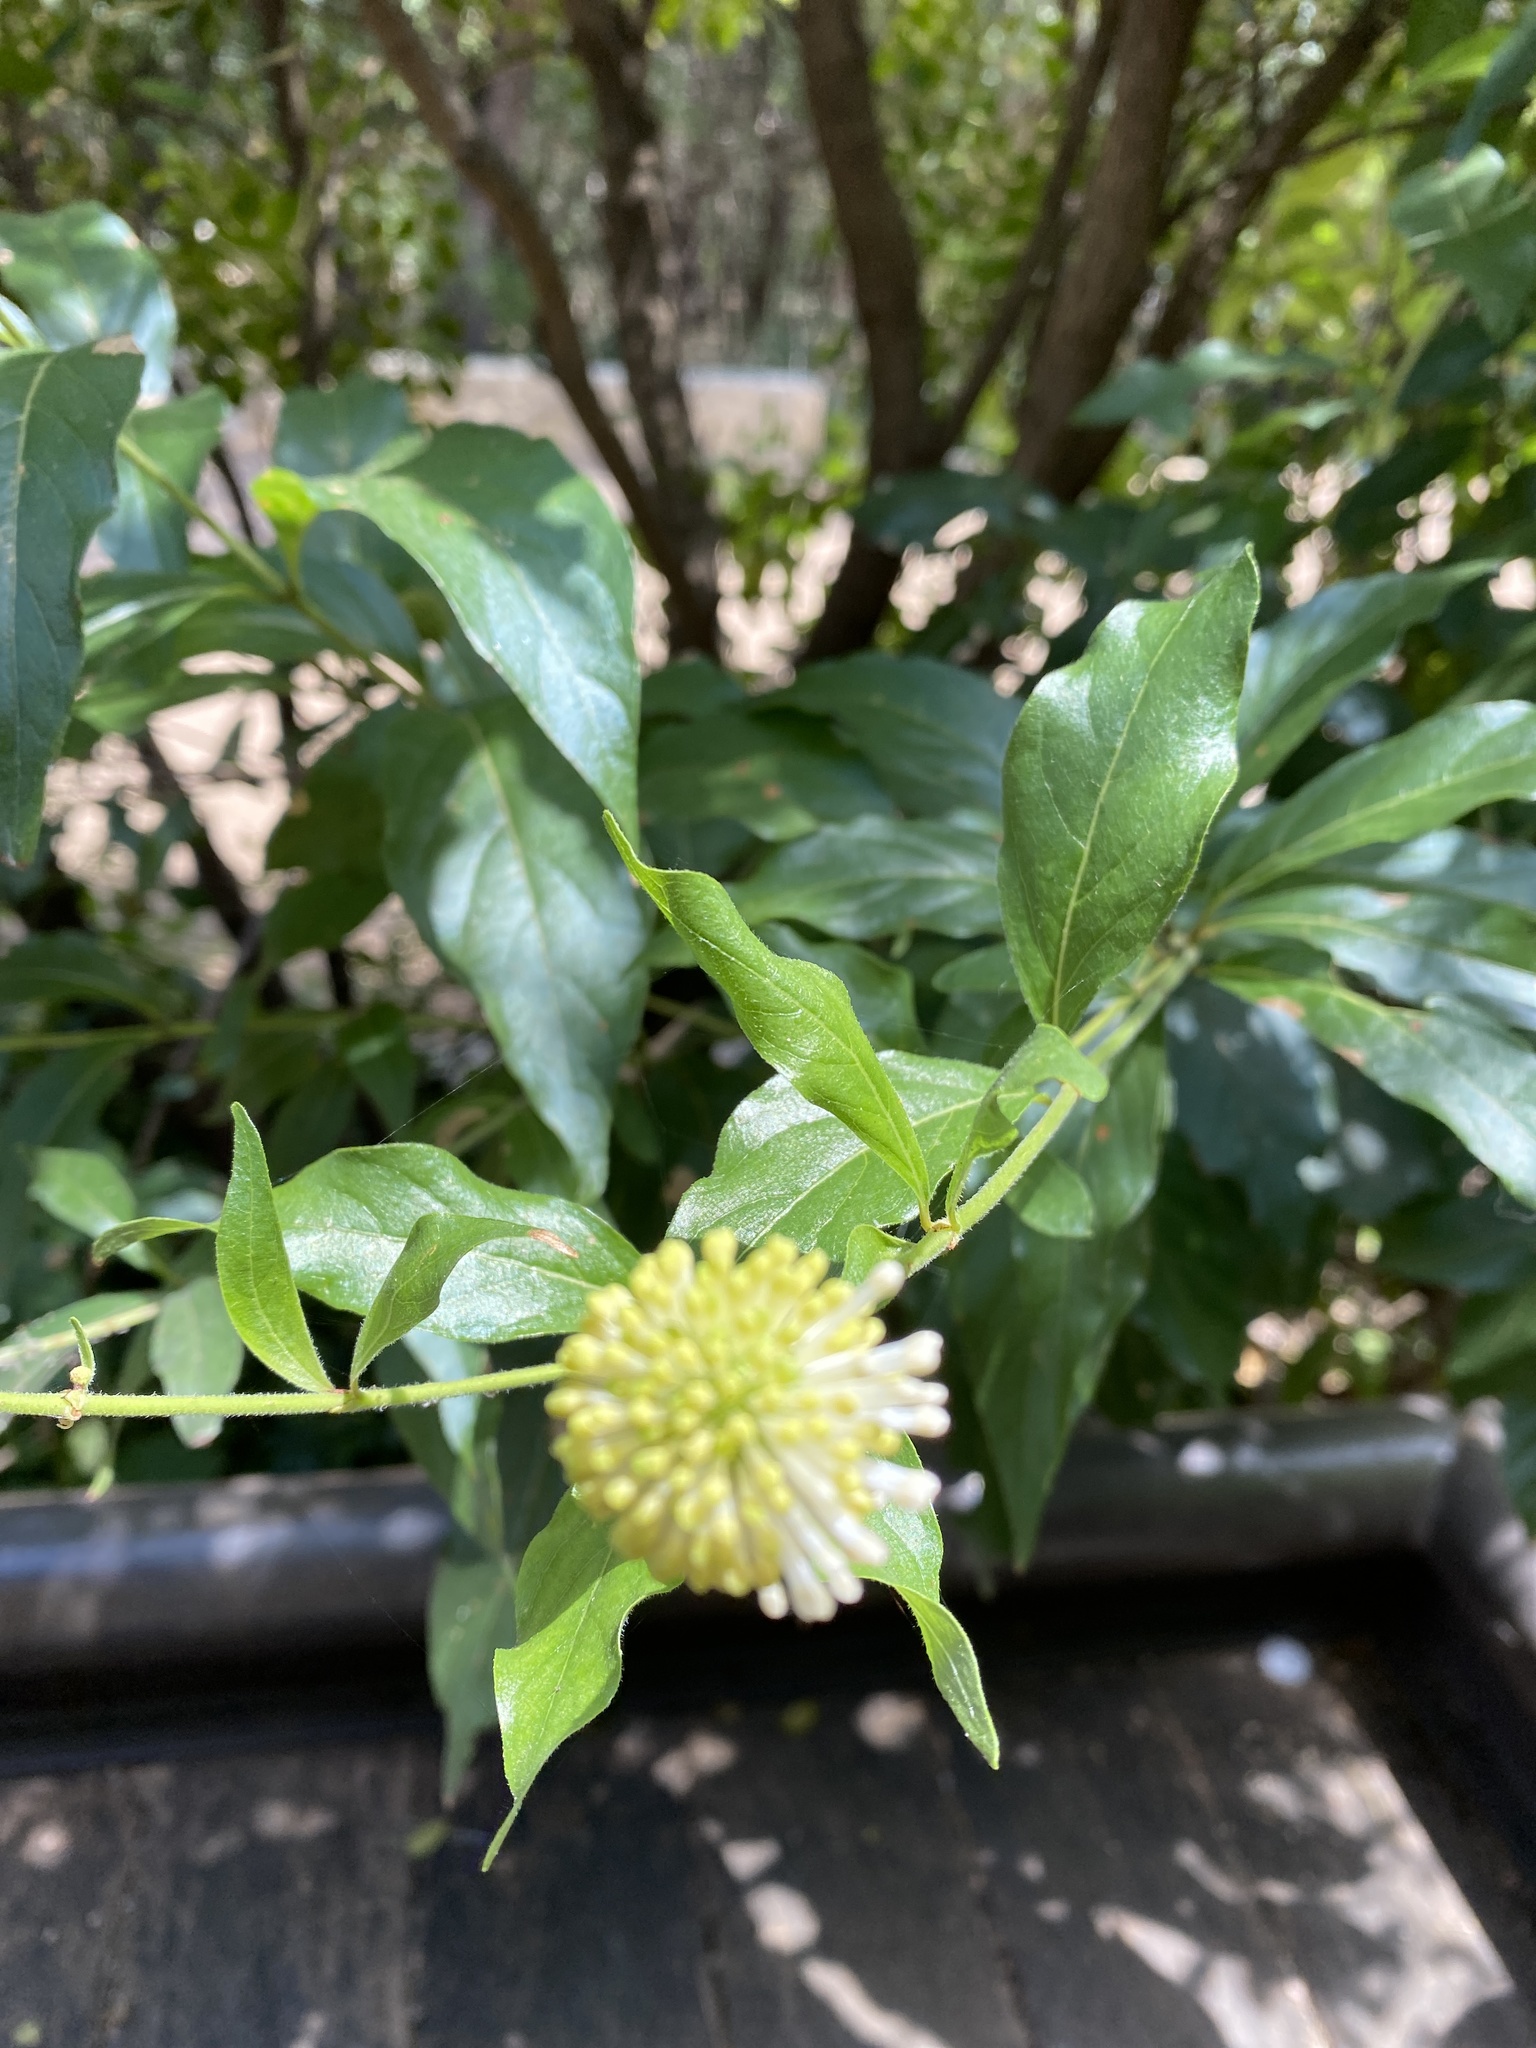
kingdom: Plantae
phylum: Tracheophyta
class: Magnoliopsida
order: Gentianales
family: Rubiaceae
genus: Cephalanthus
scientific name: Cephalanthus occidentalis
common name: Button-willow
